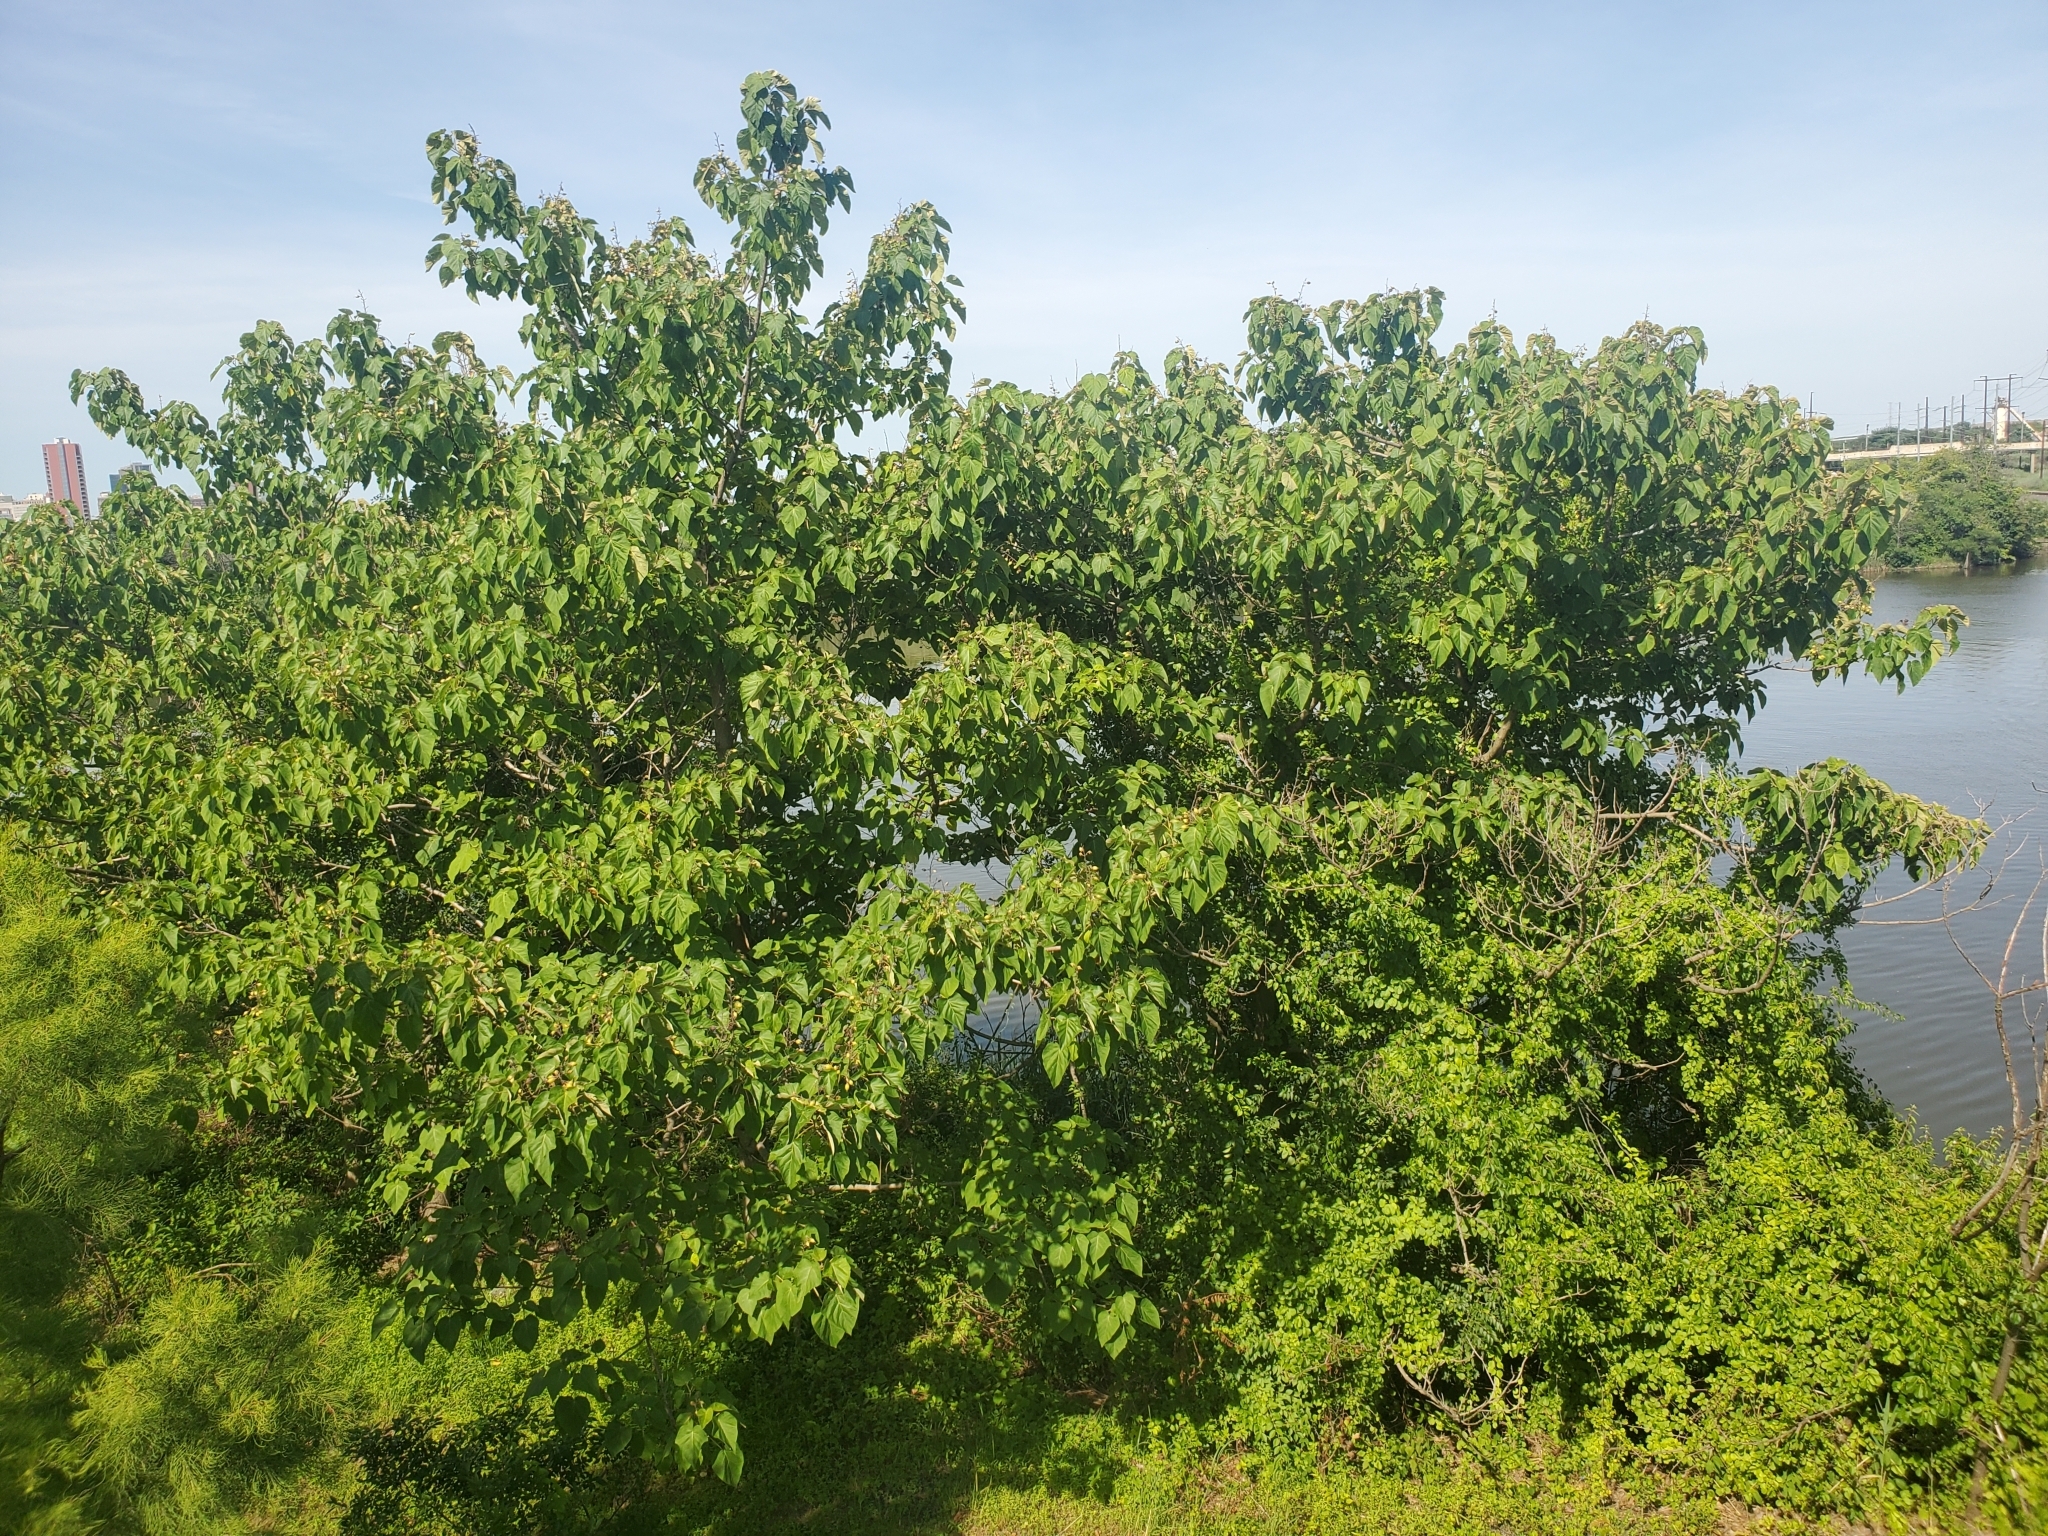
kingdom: Plantae
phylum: Tracheophyta
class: Magnoliopsida
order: Lamiales
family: Paulowniaceae
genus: Paulownia
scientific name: Paulownia tomentosa
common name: Foxglove-tree
